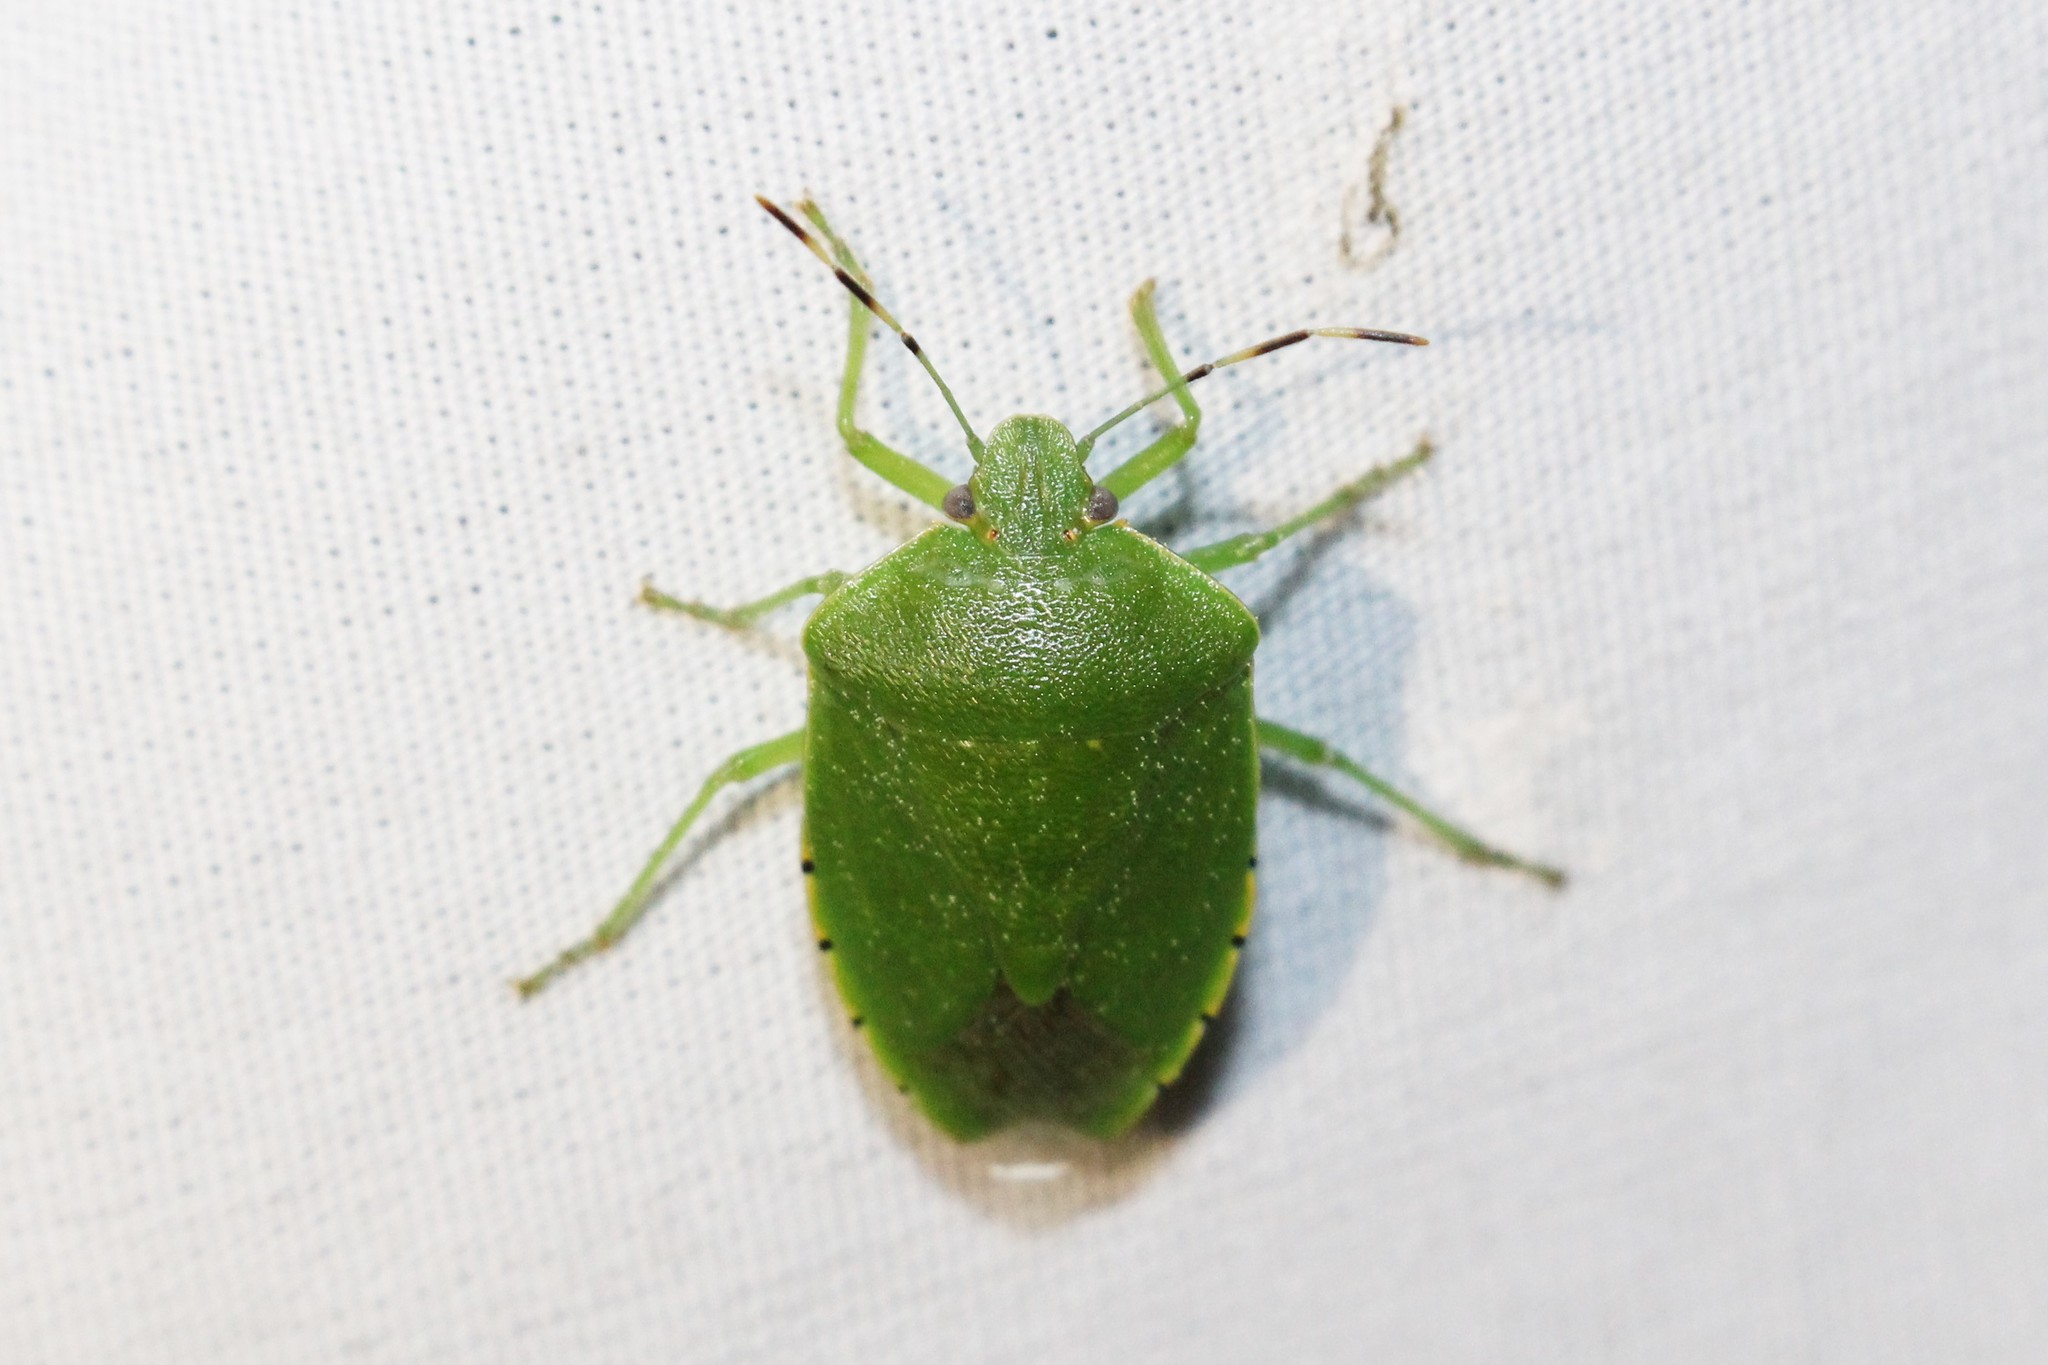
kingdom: Animalia
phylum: Arthropoda
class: Insecta
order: Hemiptera
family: Pentatomidae
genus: Chinavia
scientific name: Chinavia hilaris
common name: Green stink bug
